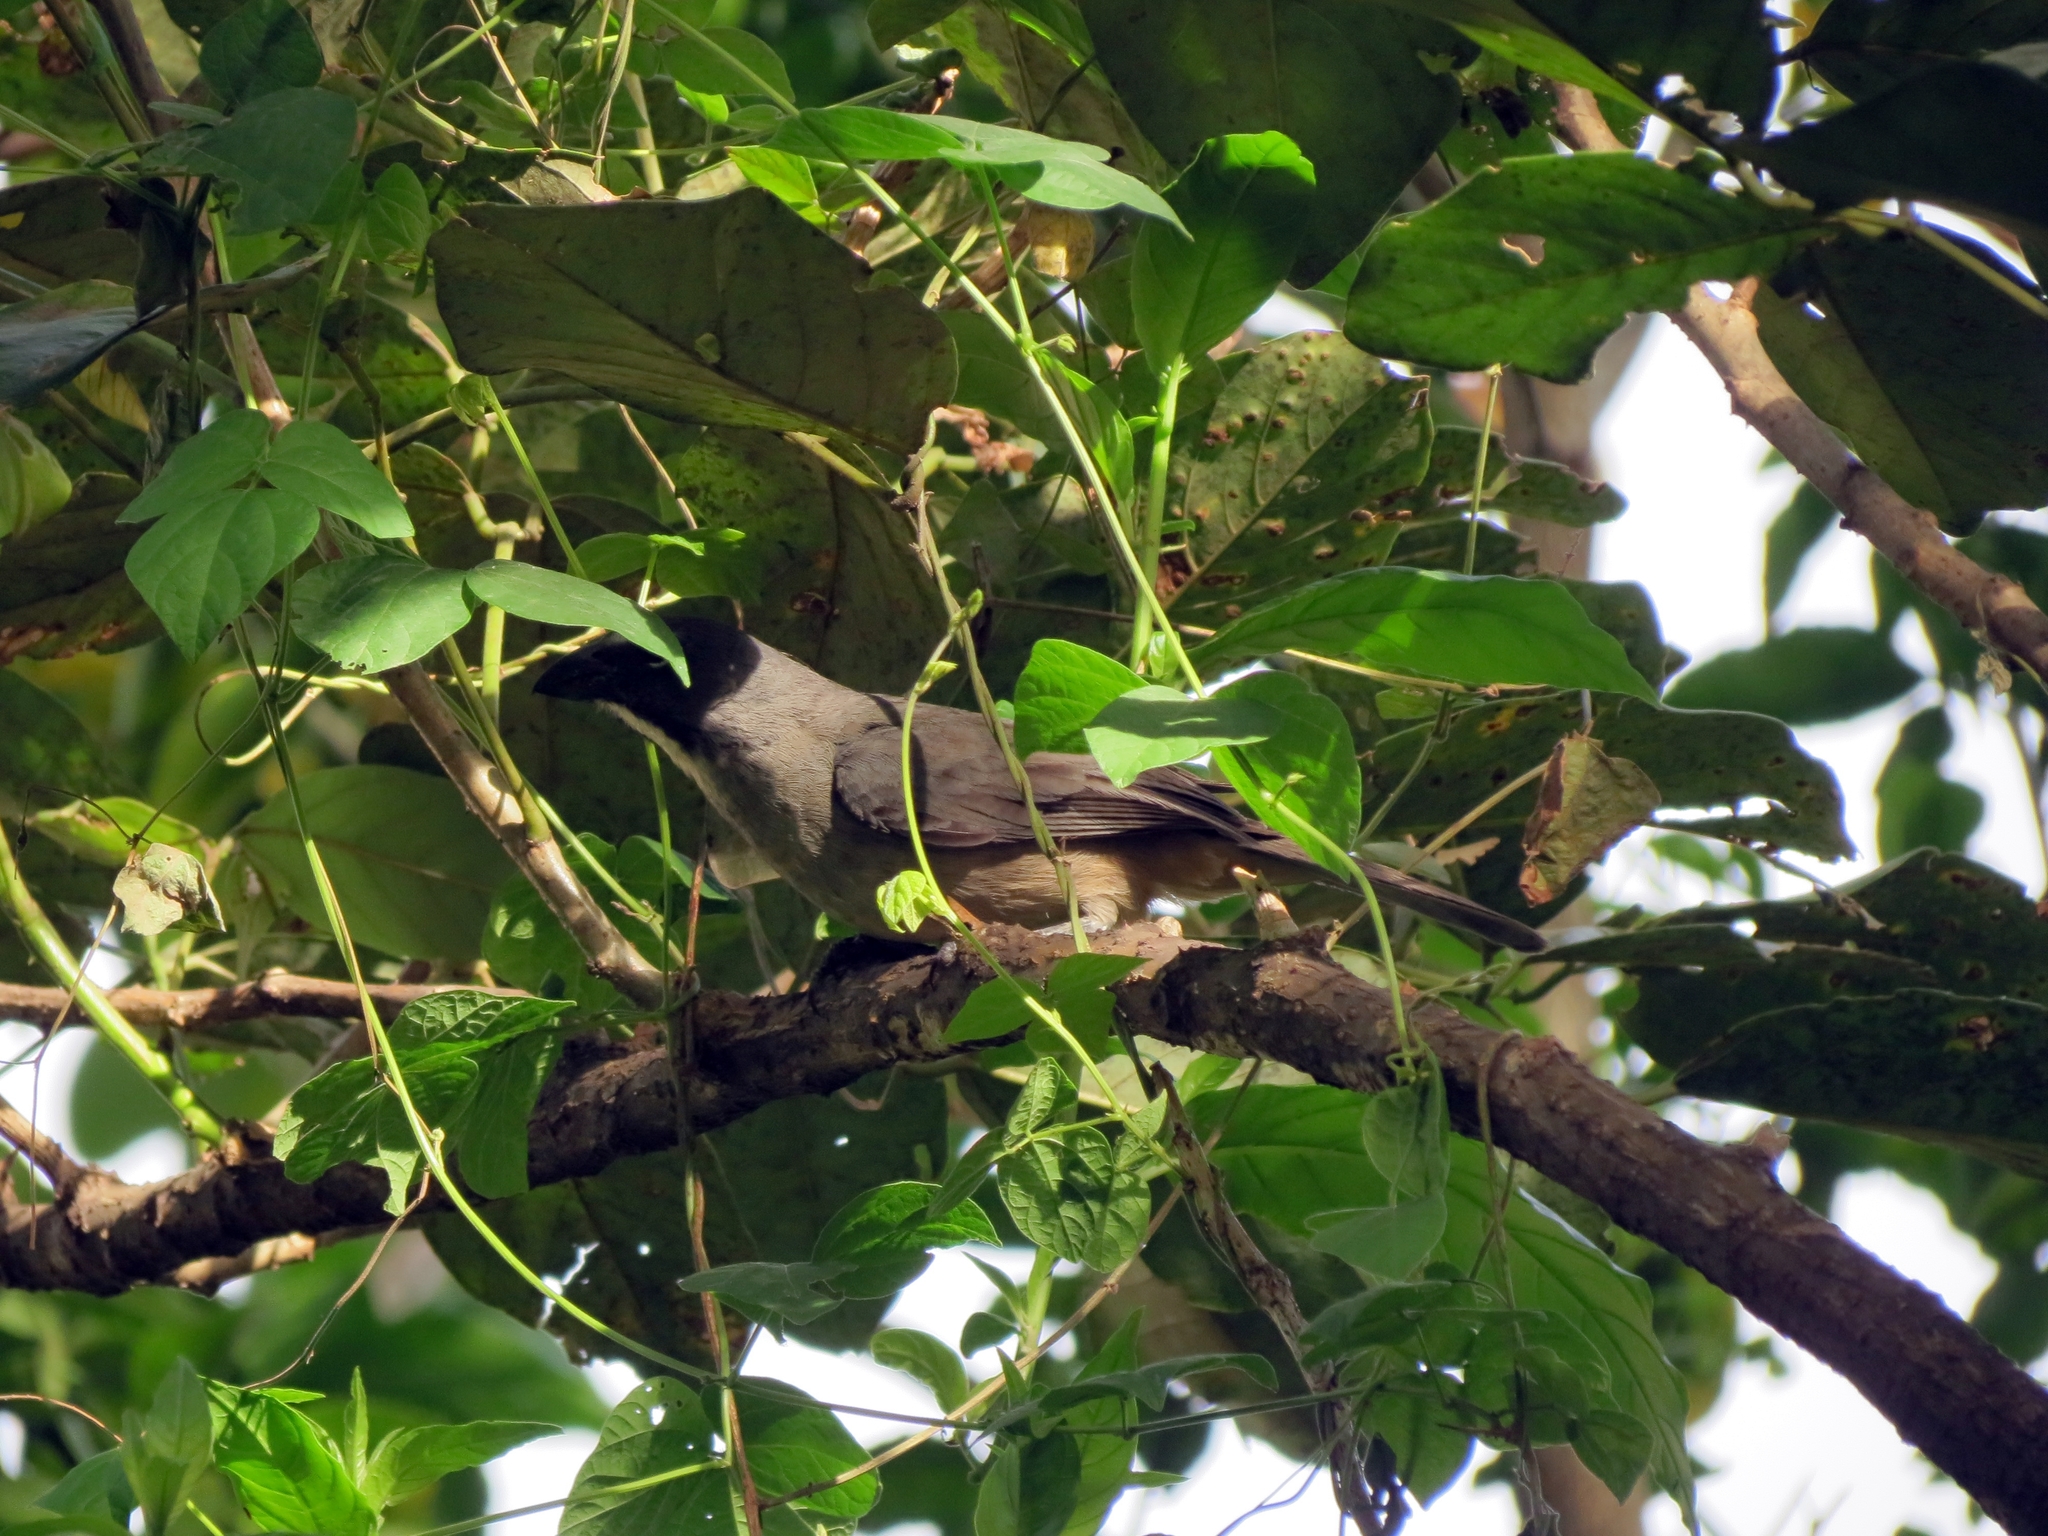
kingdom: Animalia
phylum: Chordata
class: Aves
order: Passeriformes
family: Thraupidae
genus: Saltator
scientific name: Saltator olivascens
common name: Caribbean grey saltator
